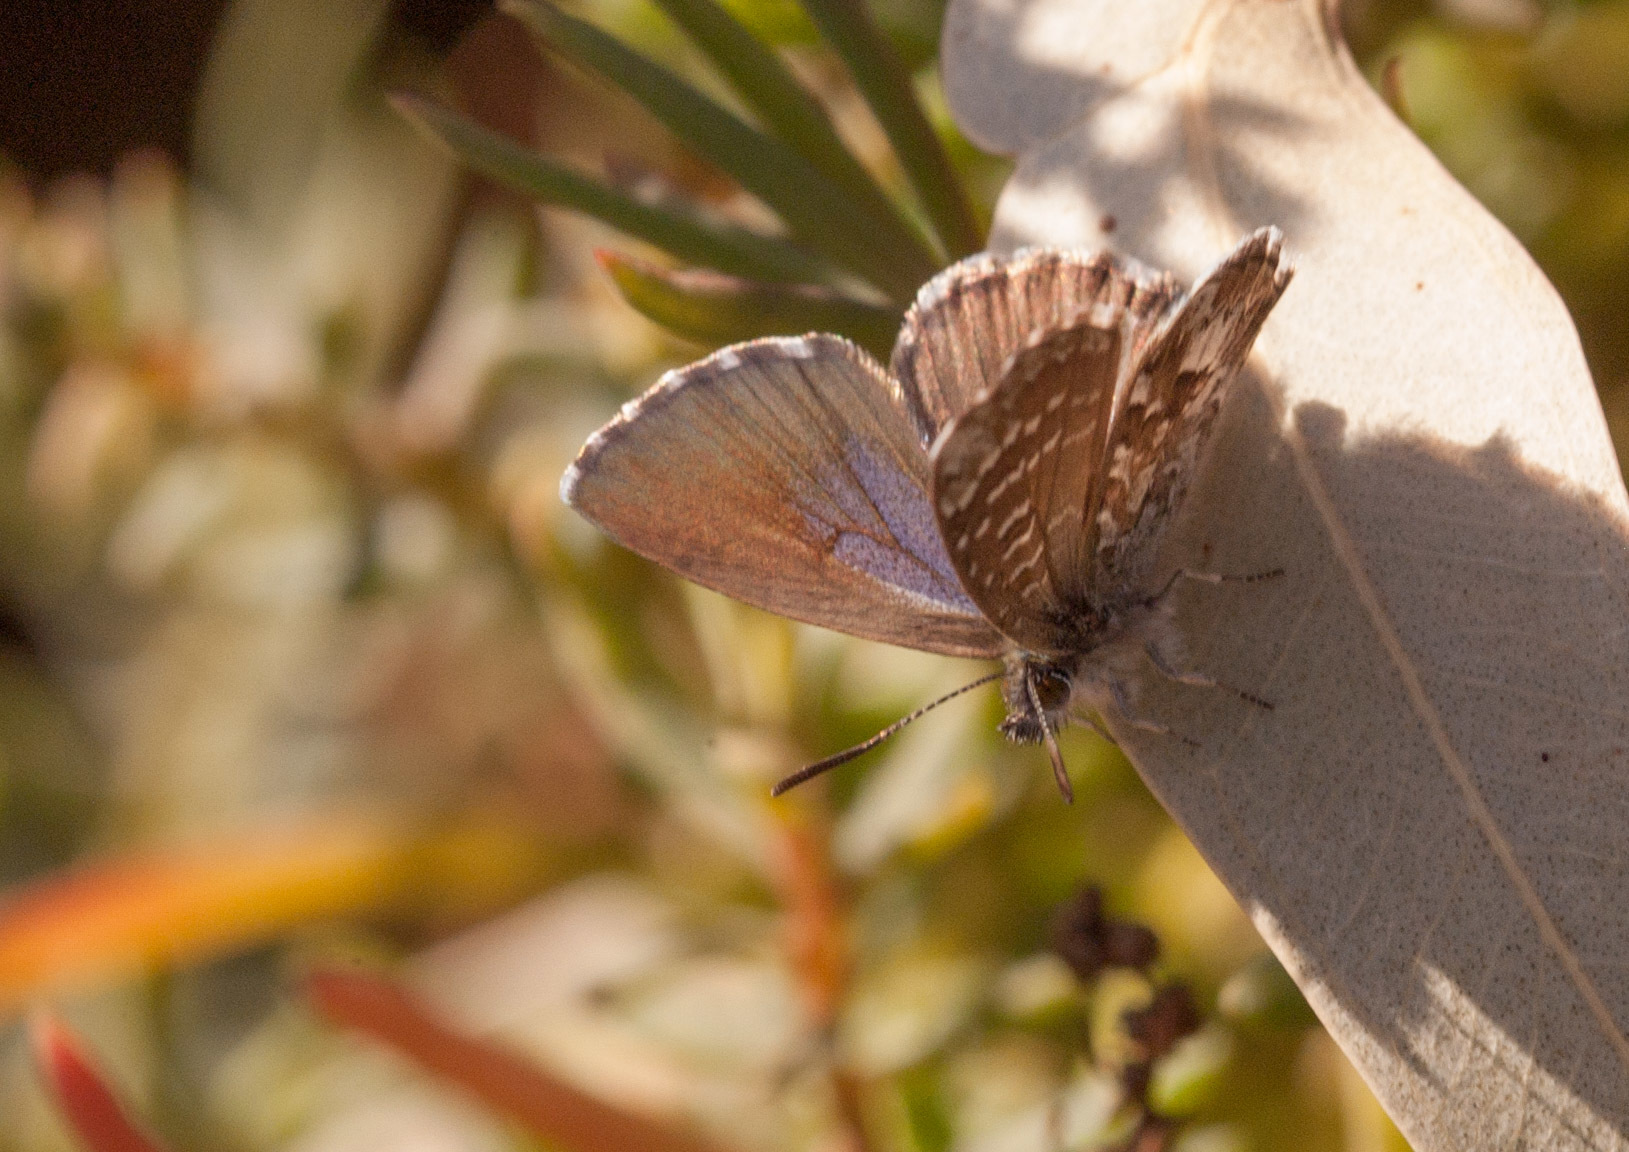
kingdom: Animalia
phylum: Arthropoda
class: Insecta
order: Lepidoptera
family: Lycaenidae
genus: Theclinesthes
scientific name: Theclinesthes serpentata
